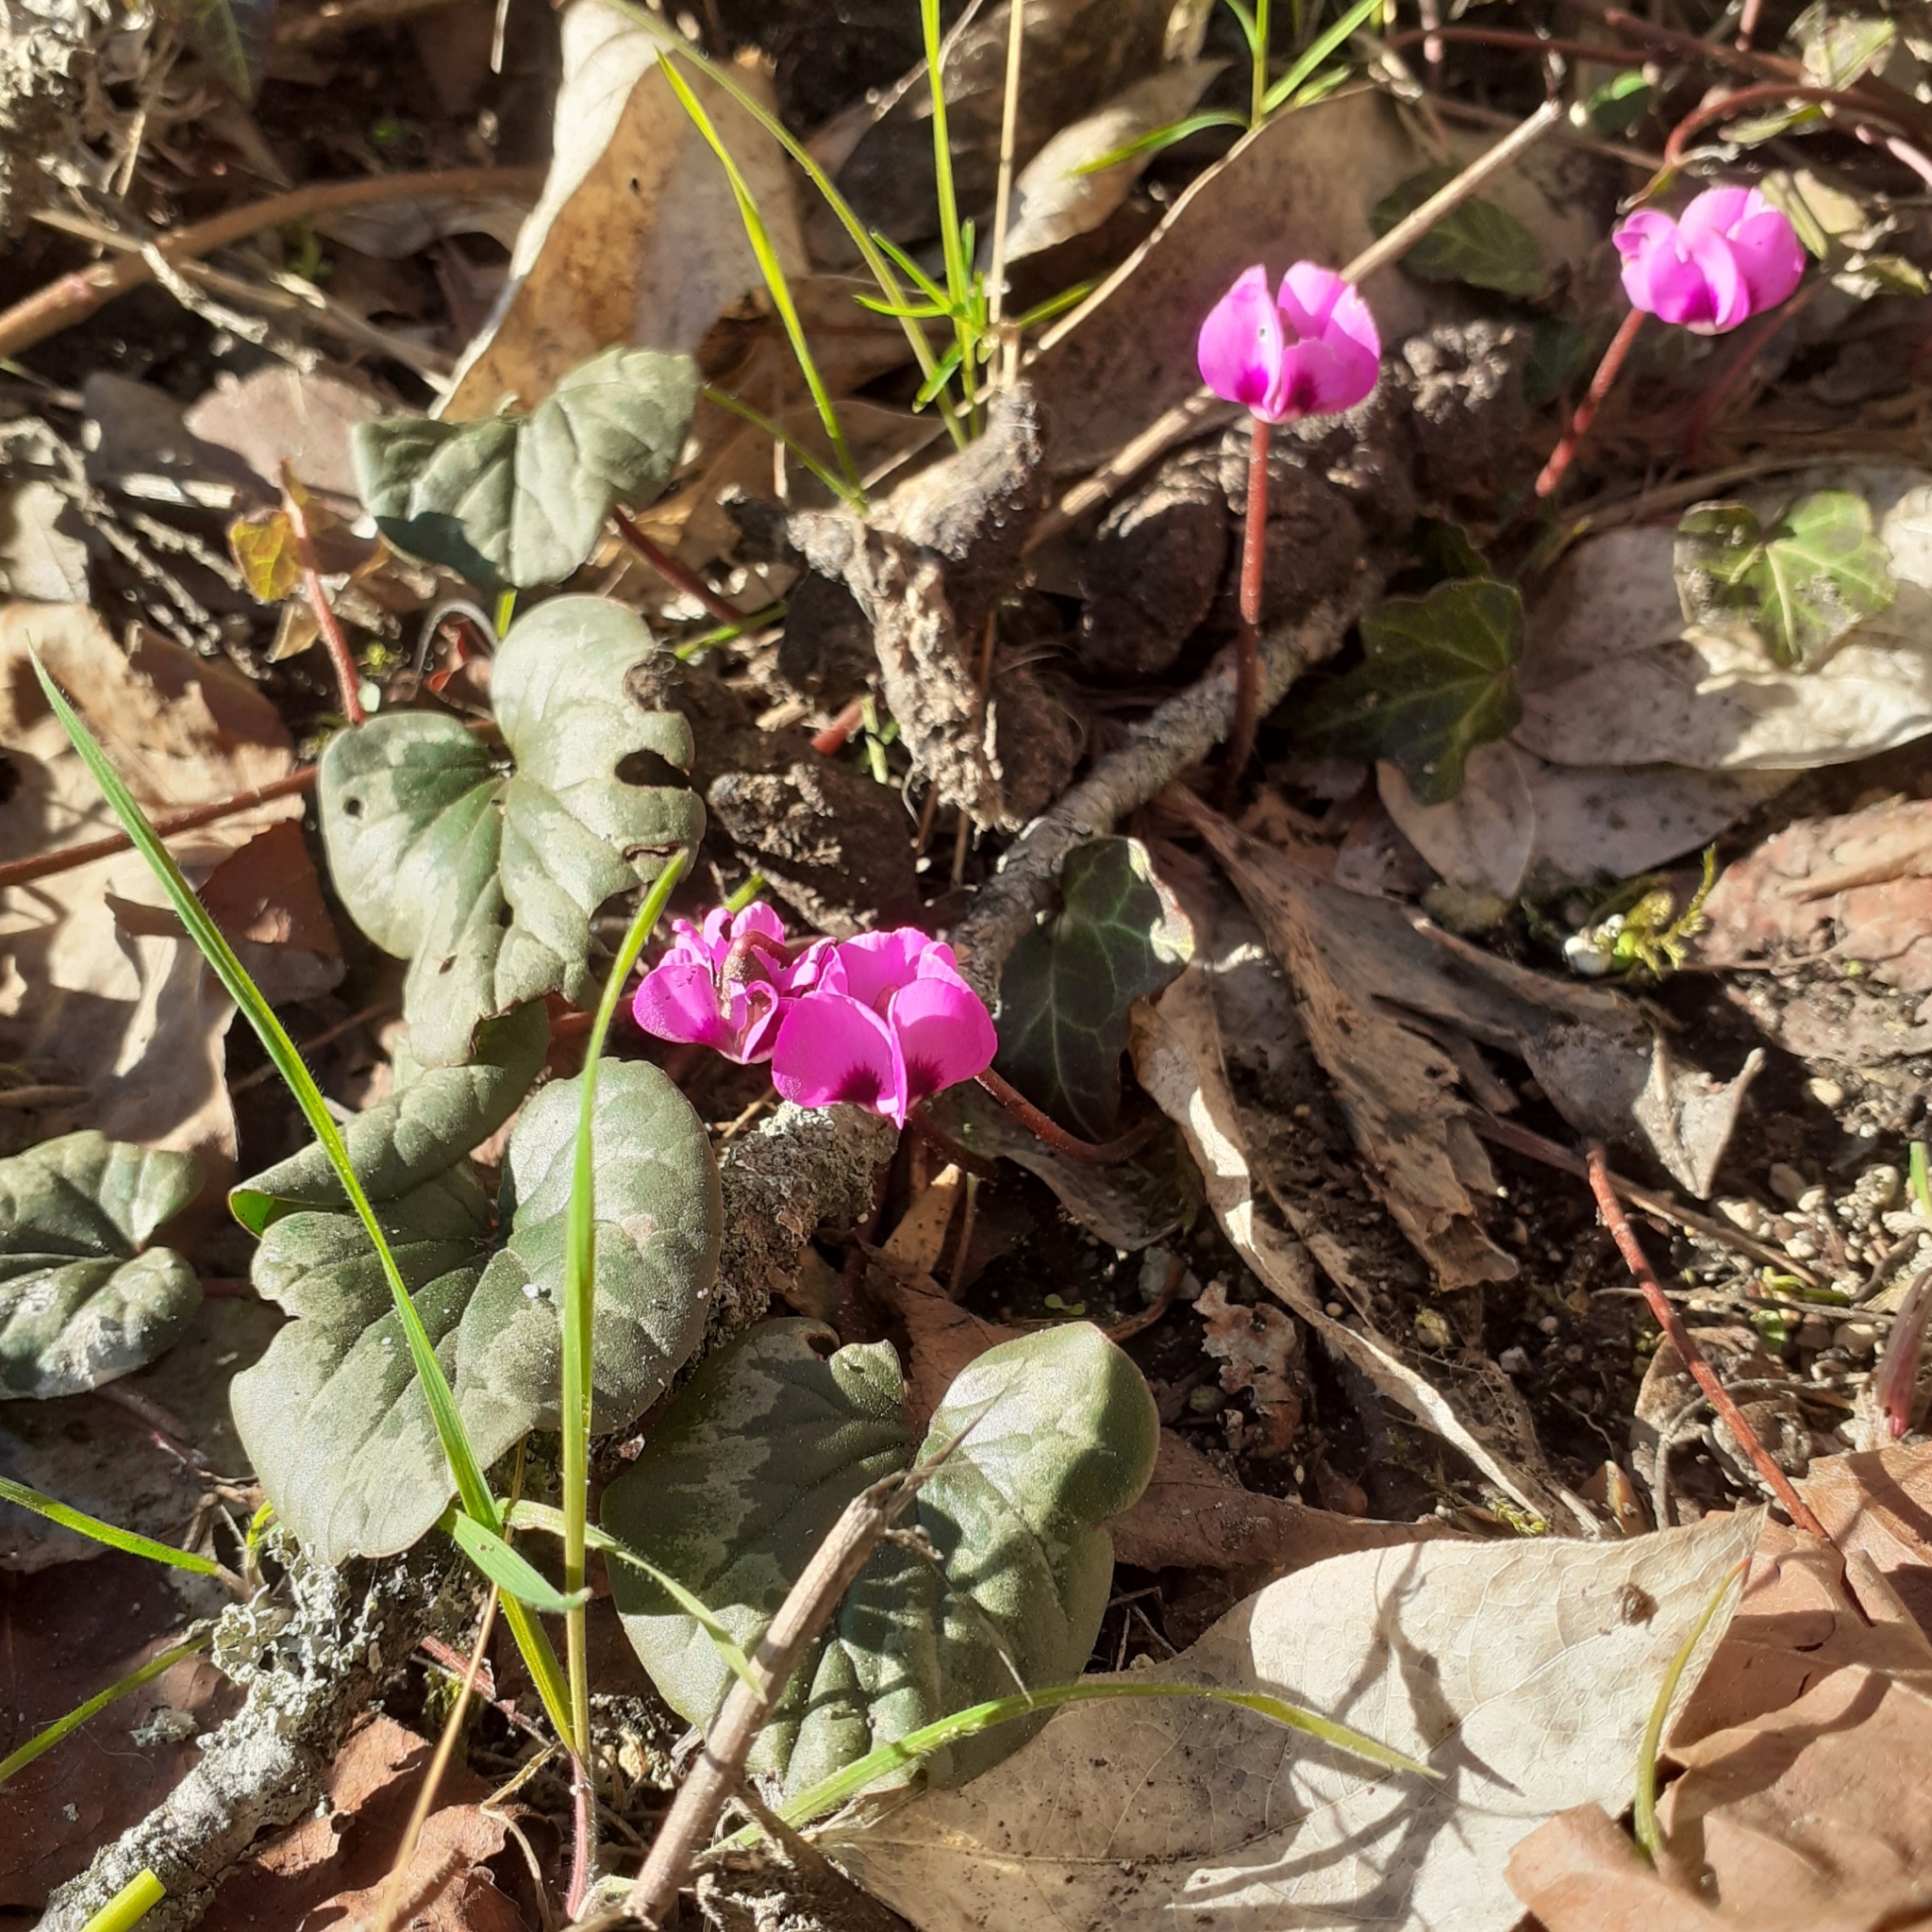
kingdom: Plantae
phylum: Tracheophyta
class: Magnoliopsida
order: Ericales
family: Primulaceae
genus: Cyclamen
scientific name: Cyclamen coum
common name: Eastern sowbread
